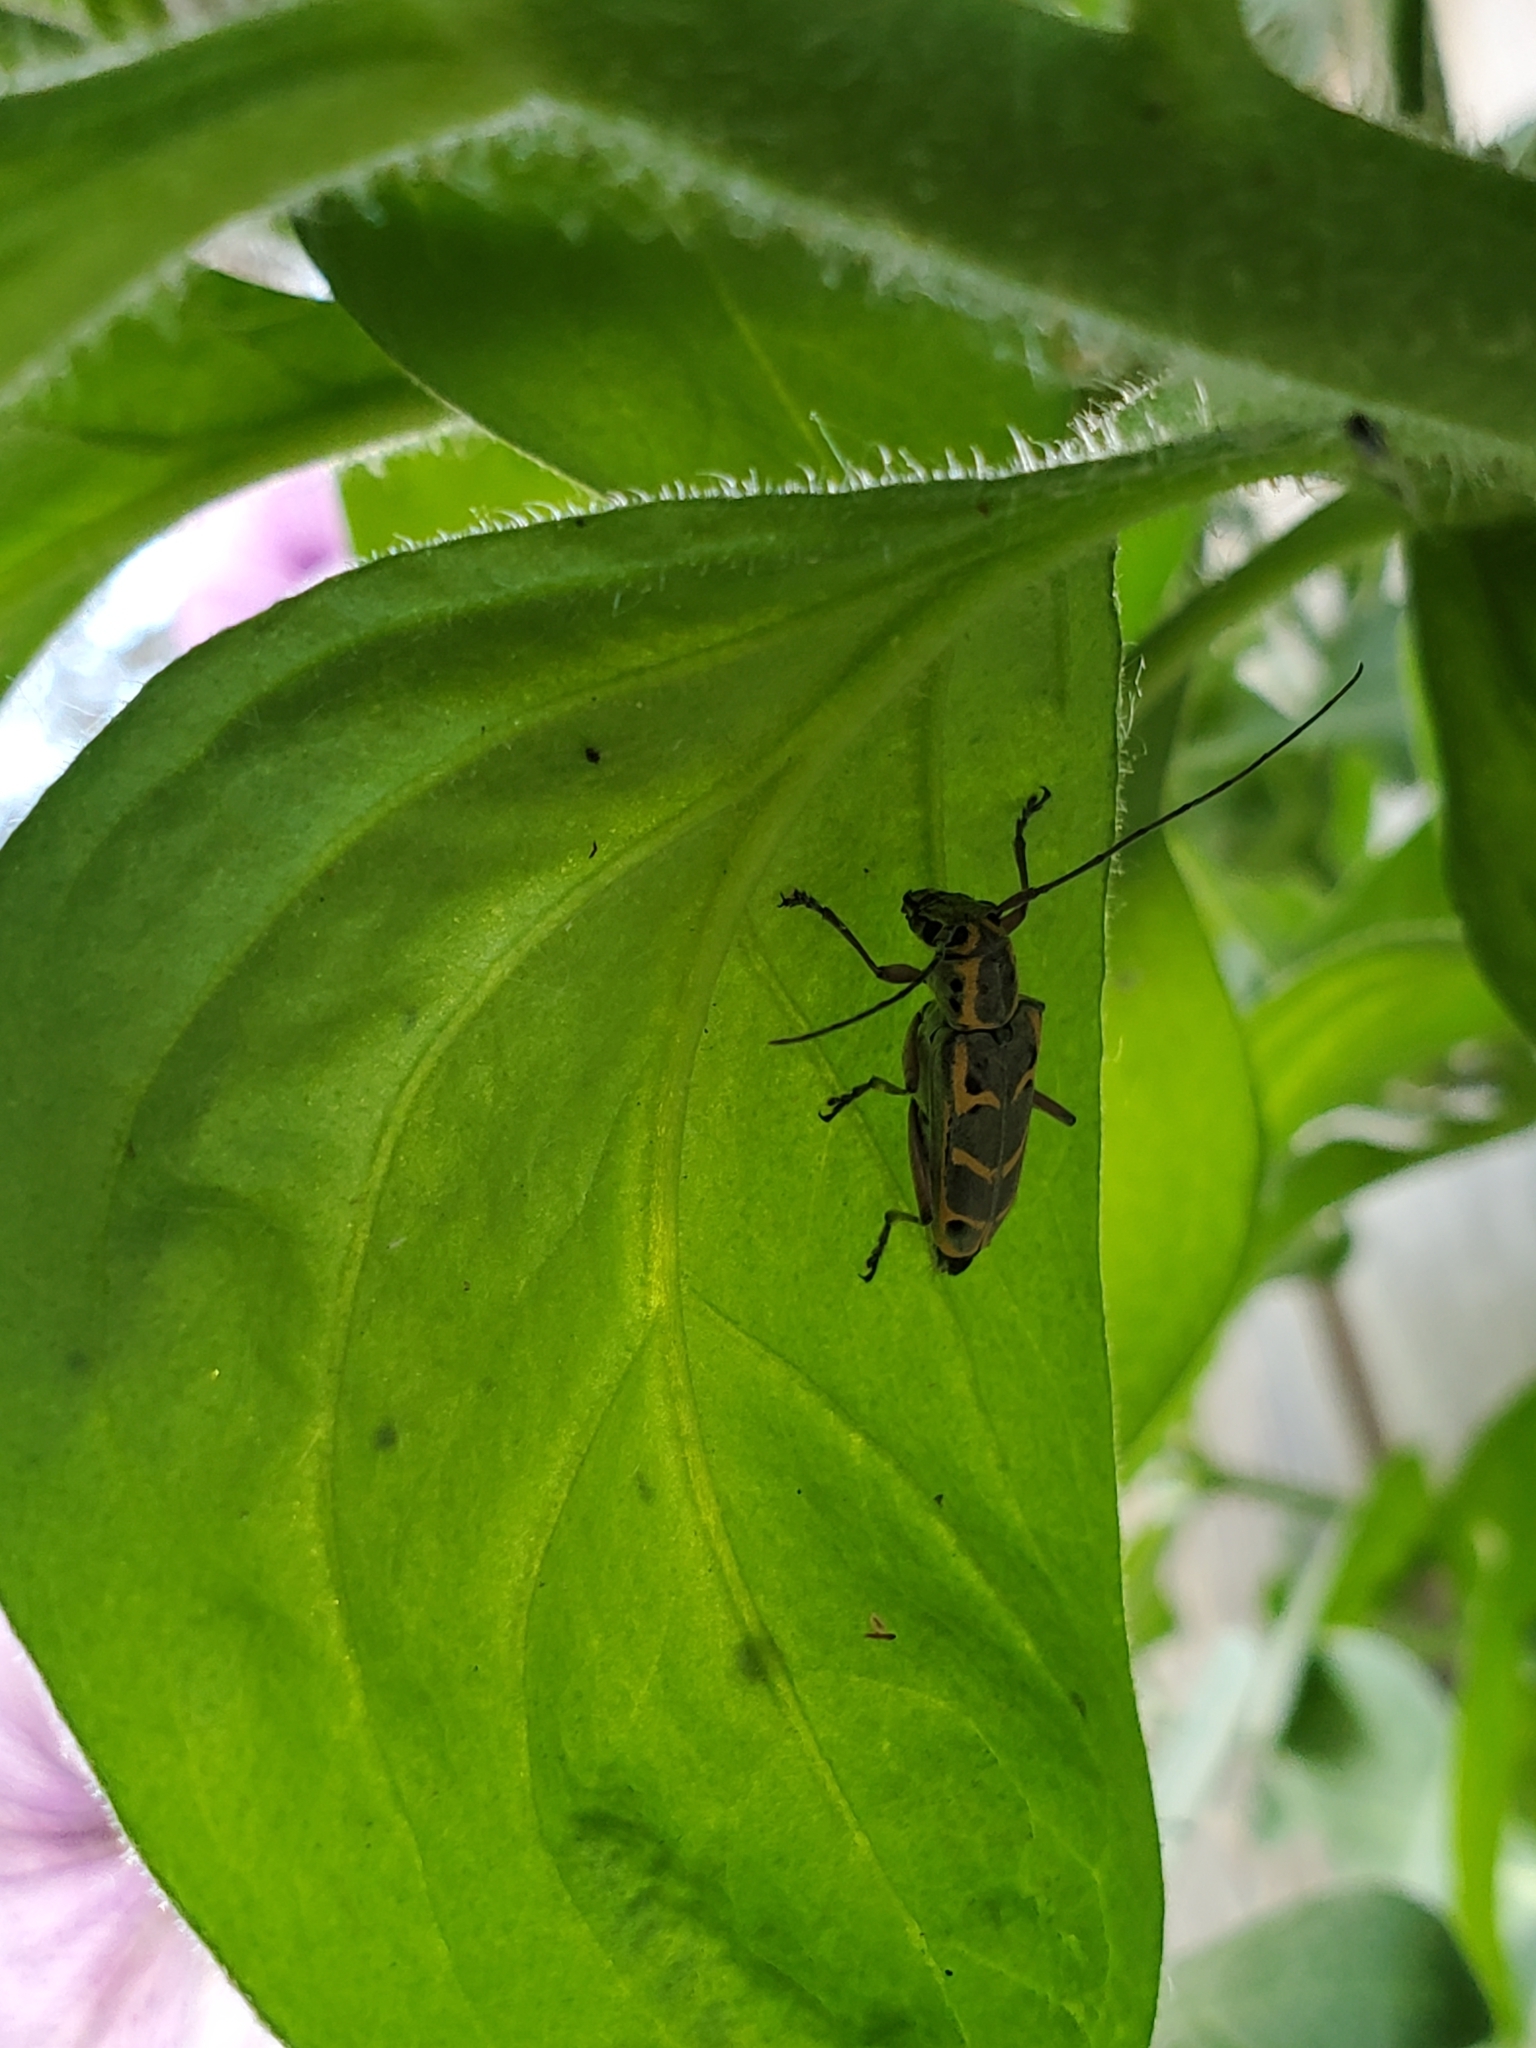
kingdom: Animalia
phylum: Arthropoda
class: Insecta
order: Coleoptera
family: Cerambycidae
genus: Saperda
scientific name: Saperda tridentata
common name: Elm borer
